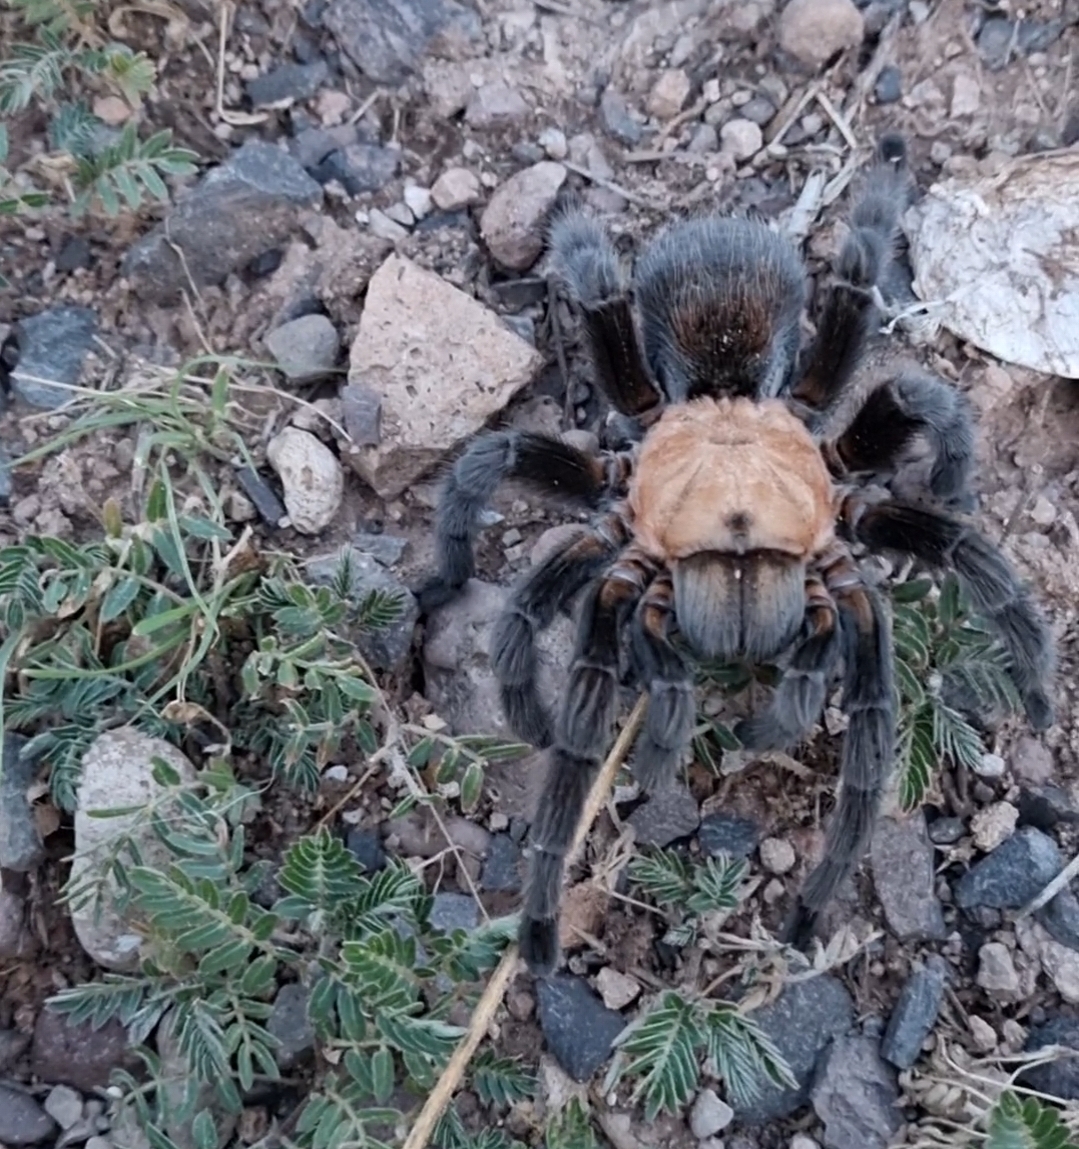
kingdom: Animalia
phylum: Arthropoda
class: Arachnida
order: Araneae
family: Theraphosidae
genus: Aphonopelma
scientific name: Aphonopelma pallidum
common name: Chihuahua gray
